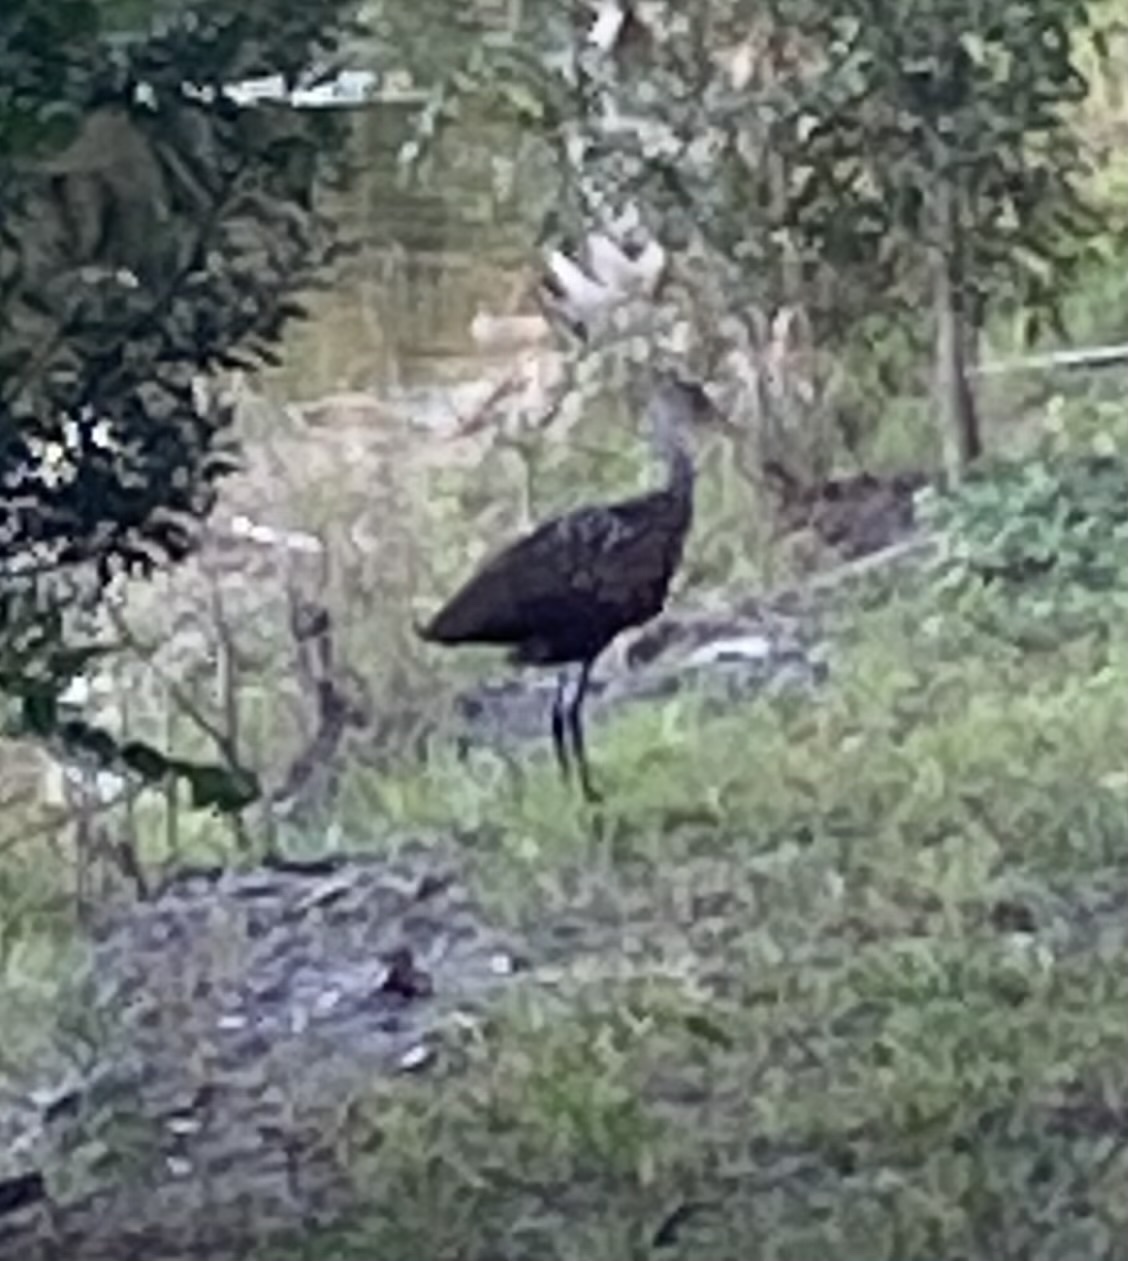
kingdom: Animalia
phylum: Chordata
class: Aves
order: Gruiformes
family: Aramidae
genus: Aramus
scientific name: Aramus guarauna
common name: Limpkin
